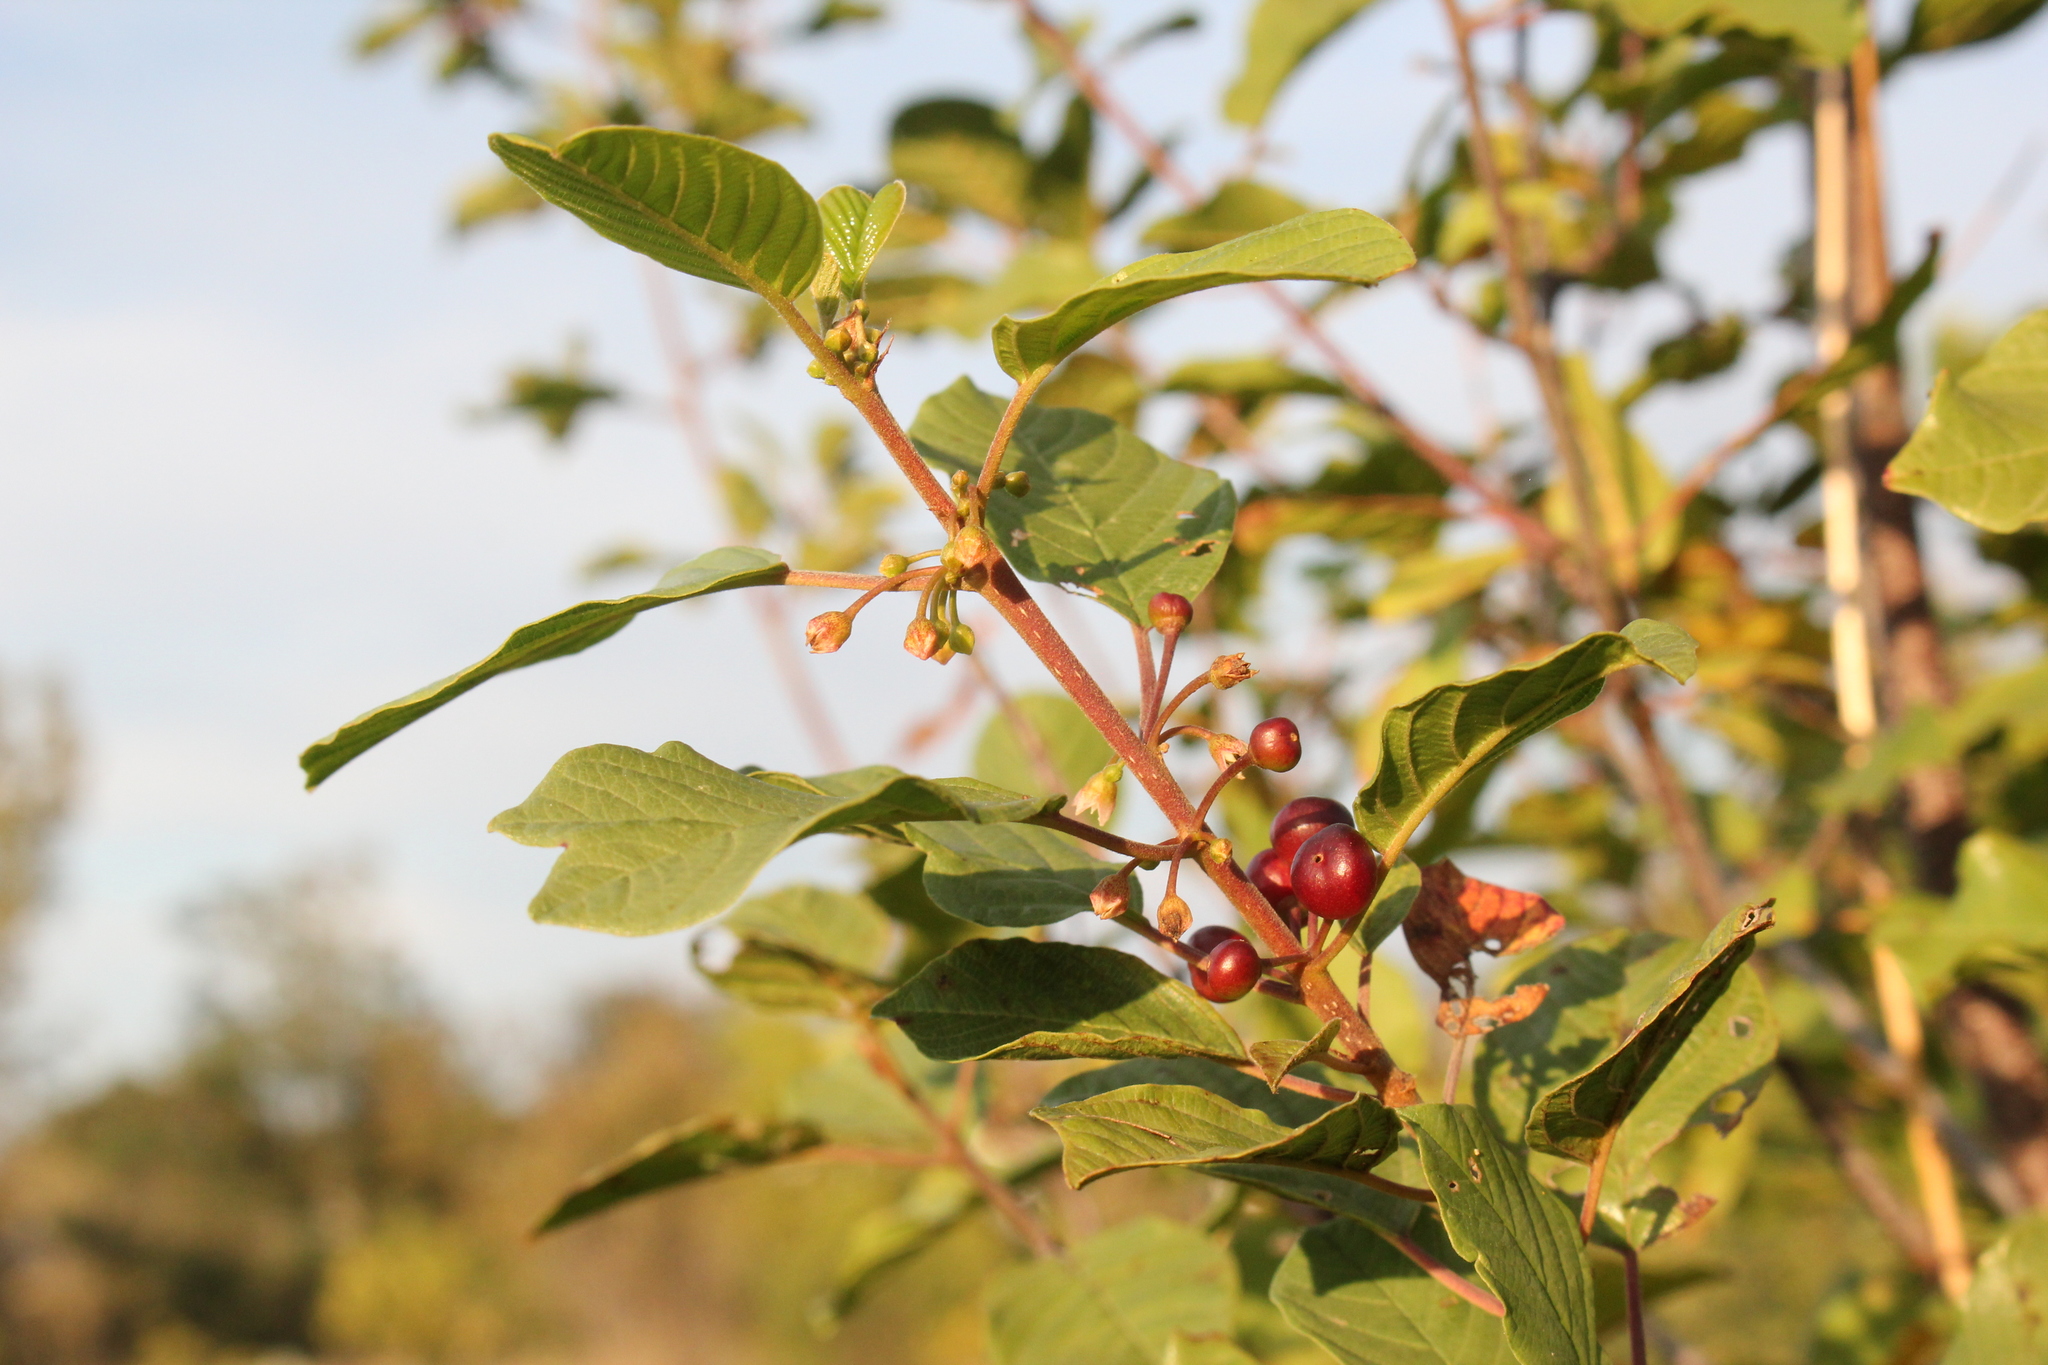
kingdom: Plantae
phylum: Tracheophyta
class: Magnoliopsida
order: Rosales
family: Rhamnaceae
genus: Frangula
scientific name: Frangula alnus
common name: Alder buckthorn
